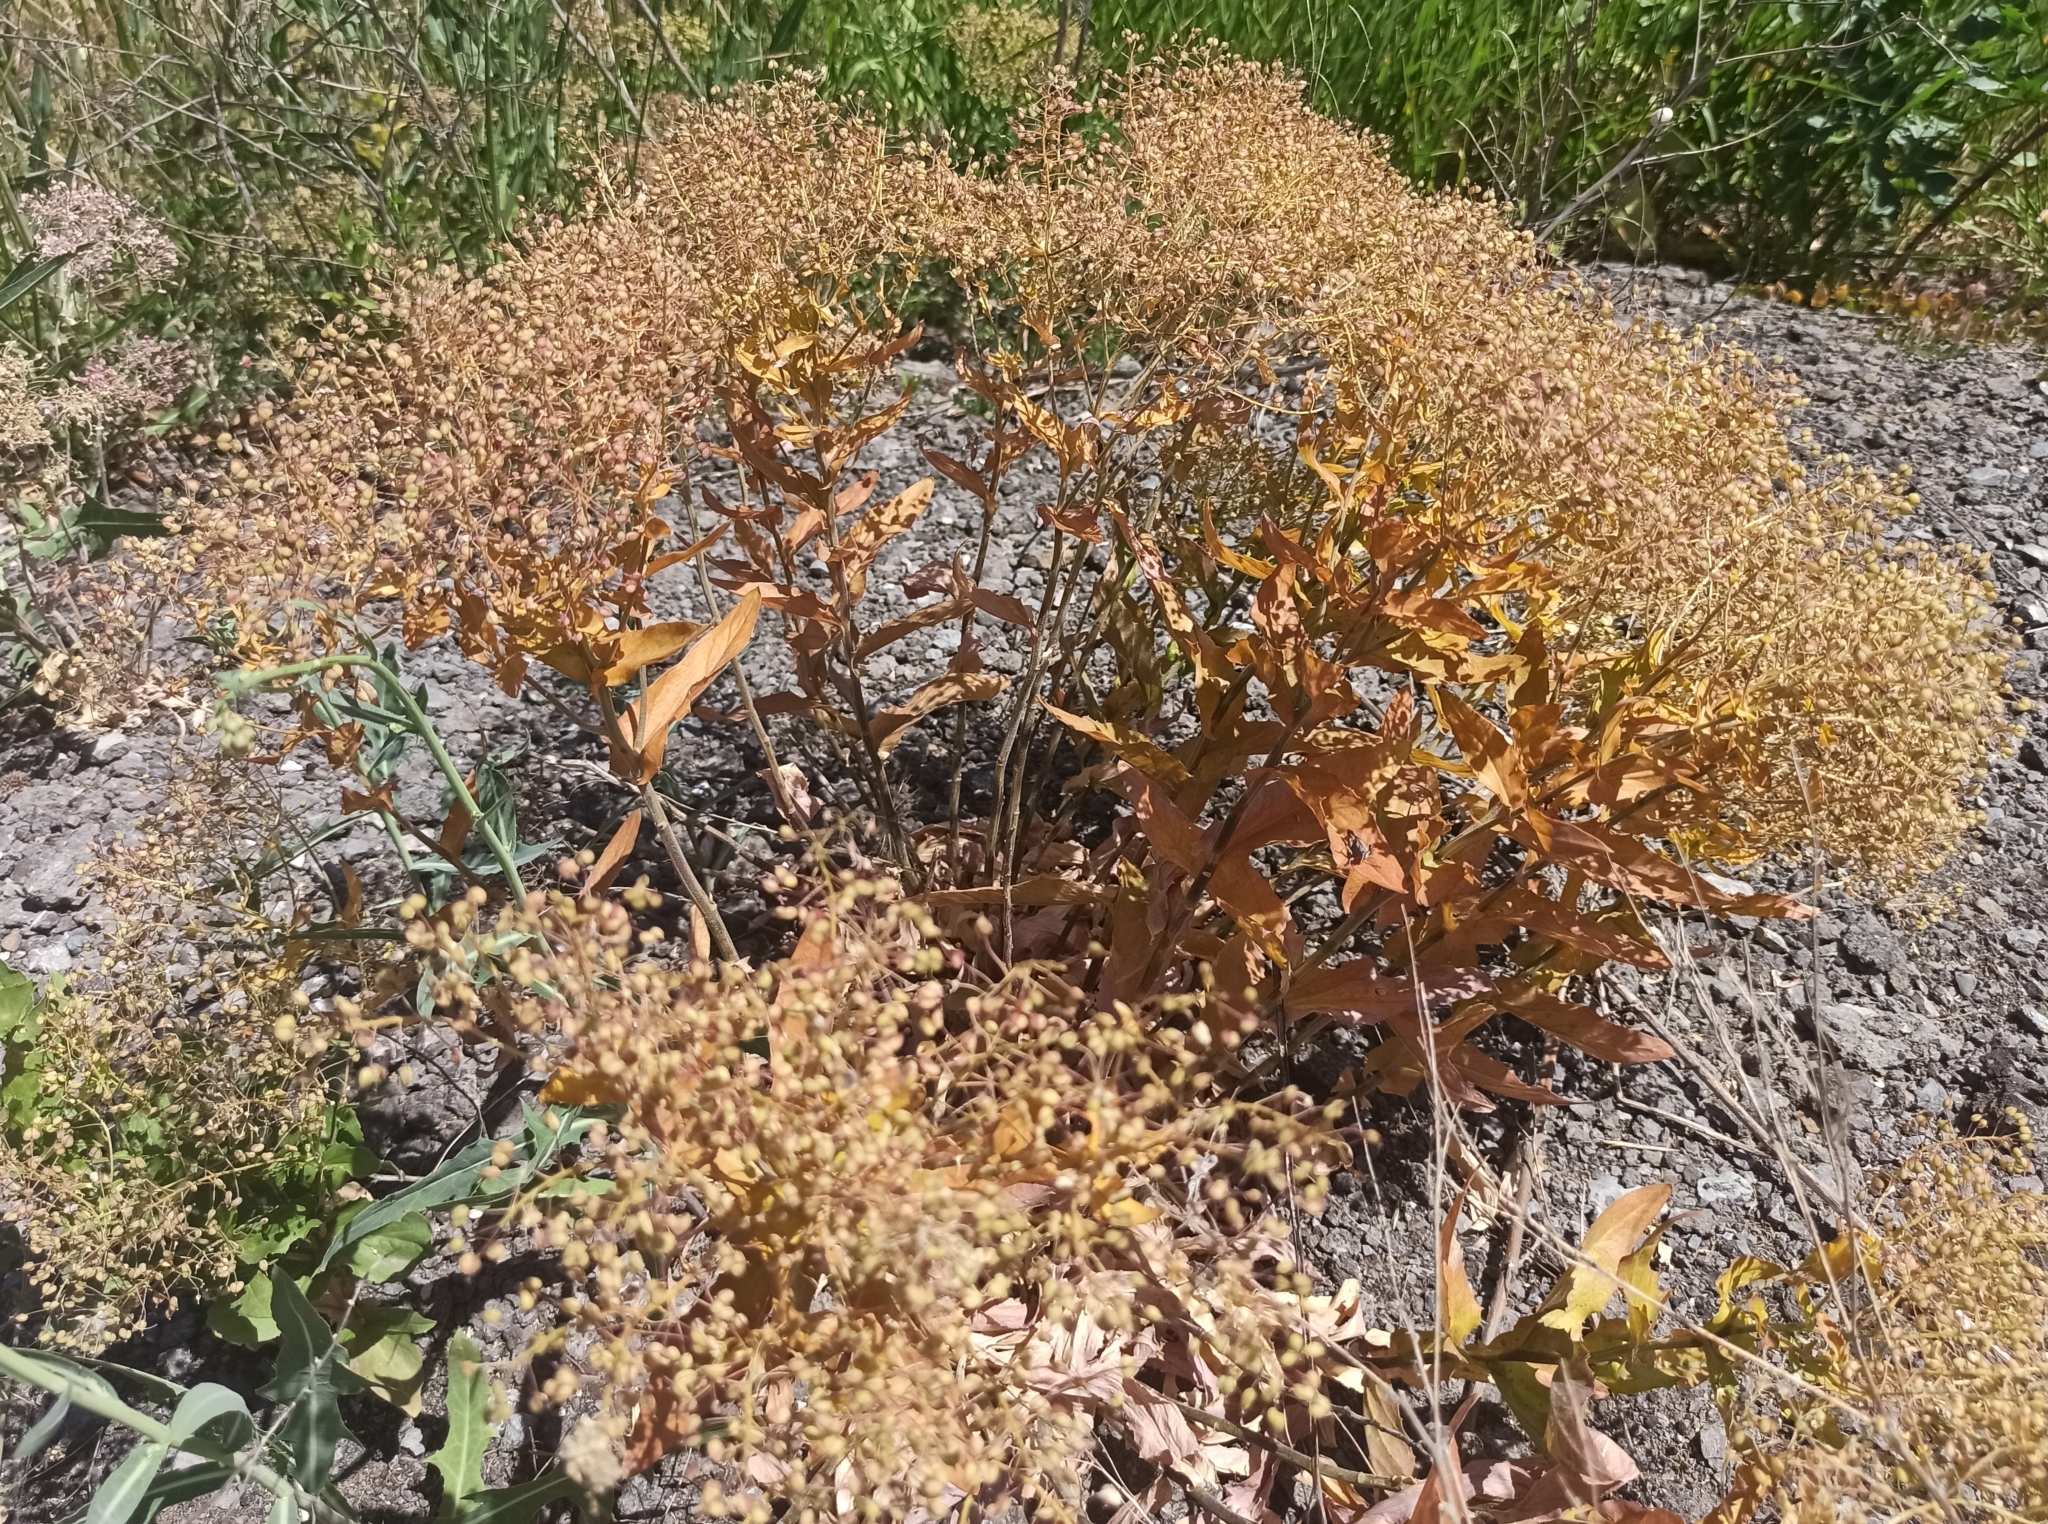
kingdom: Plantae
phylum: Tracheophyta
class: Magnoliopsida
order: Brassicales
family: Brassicaceae
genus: Lepidium
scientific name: Lepidium draba
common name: Hoary cress
